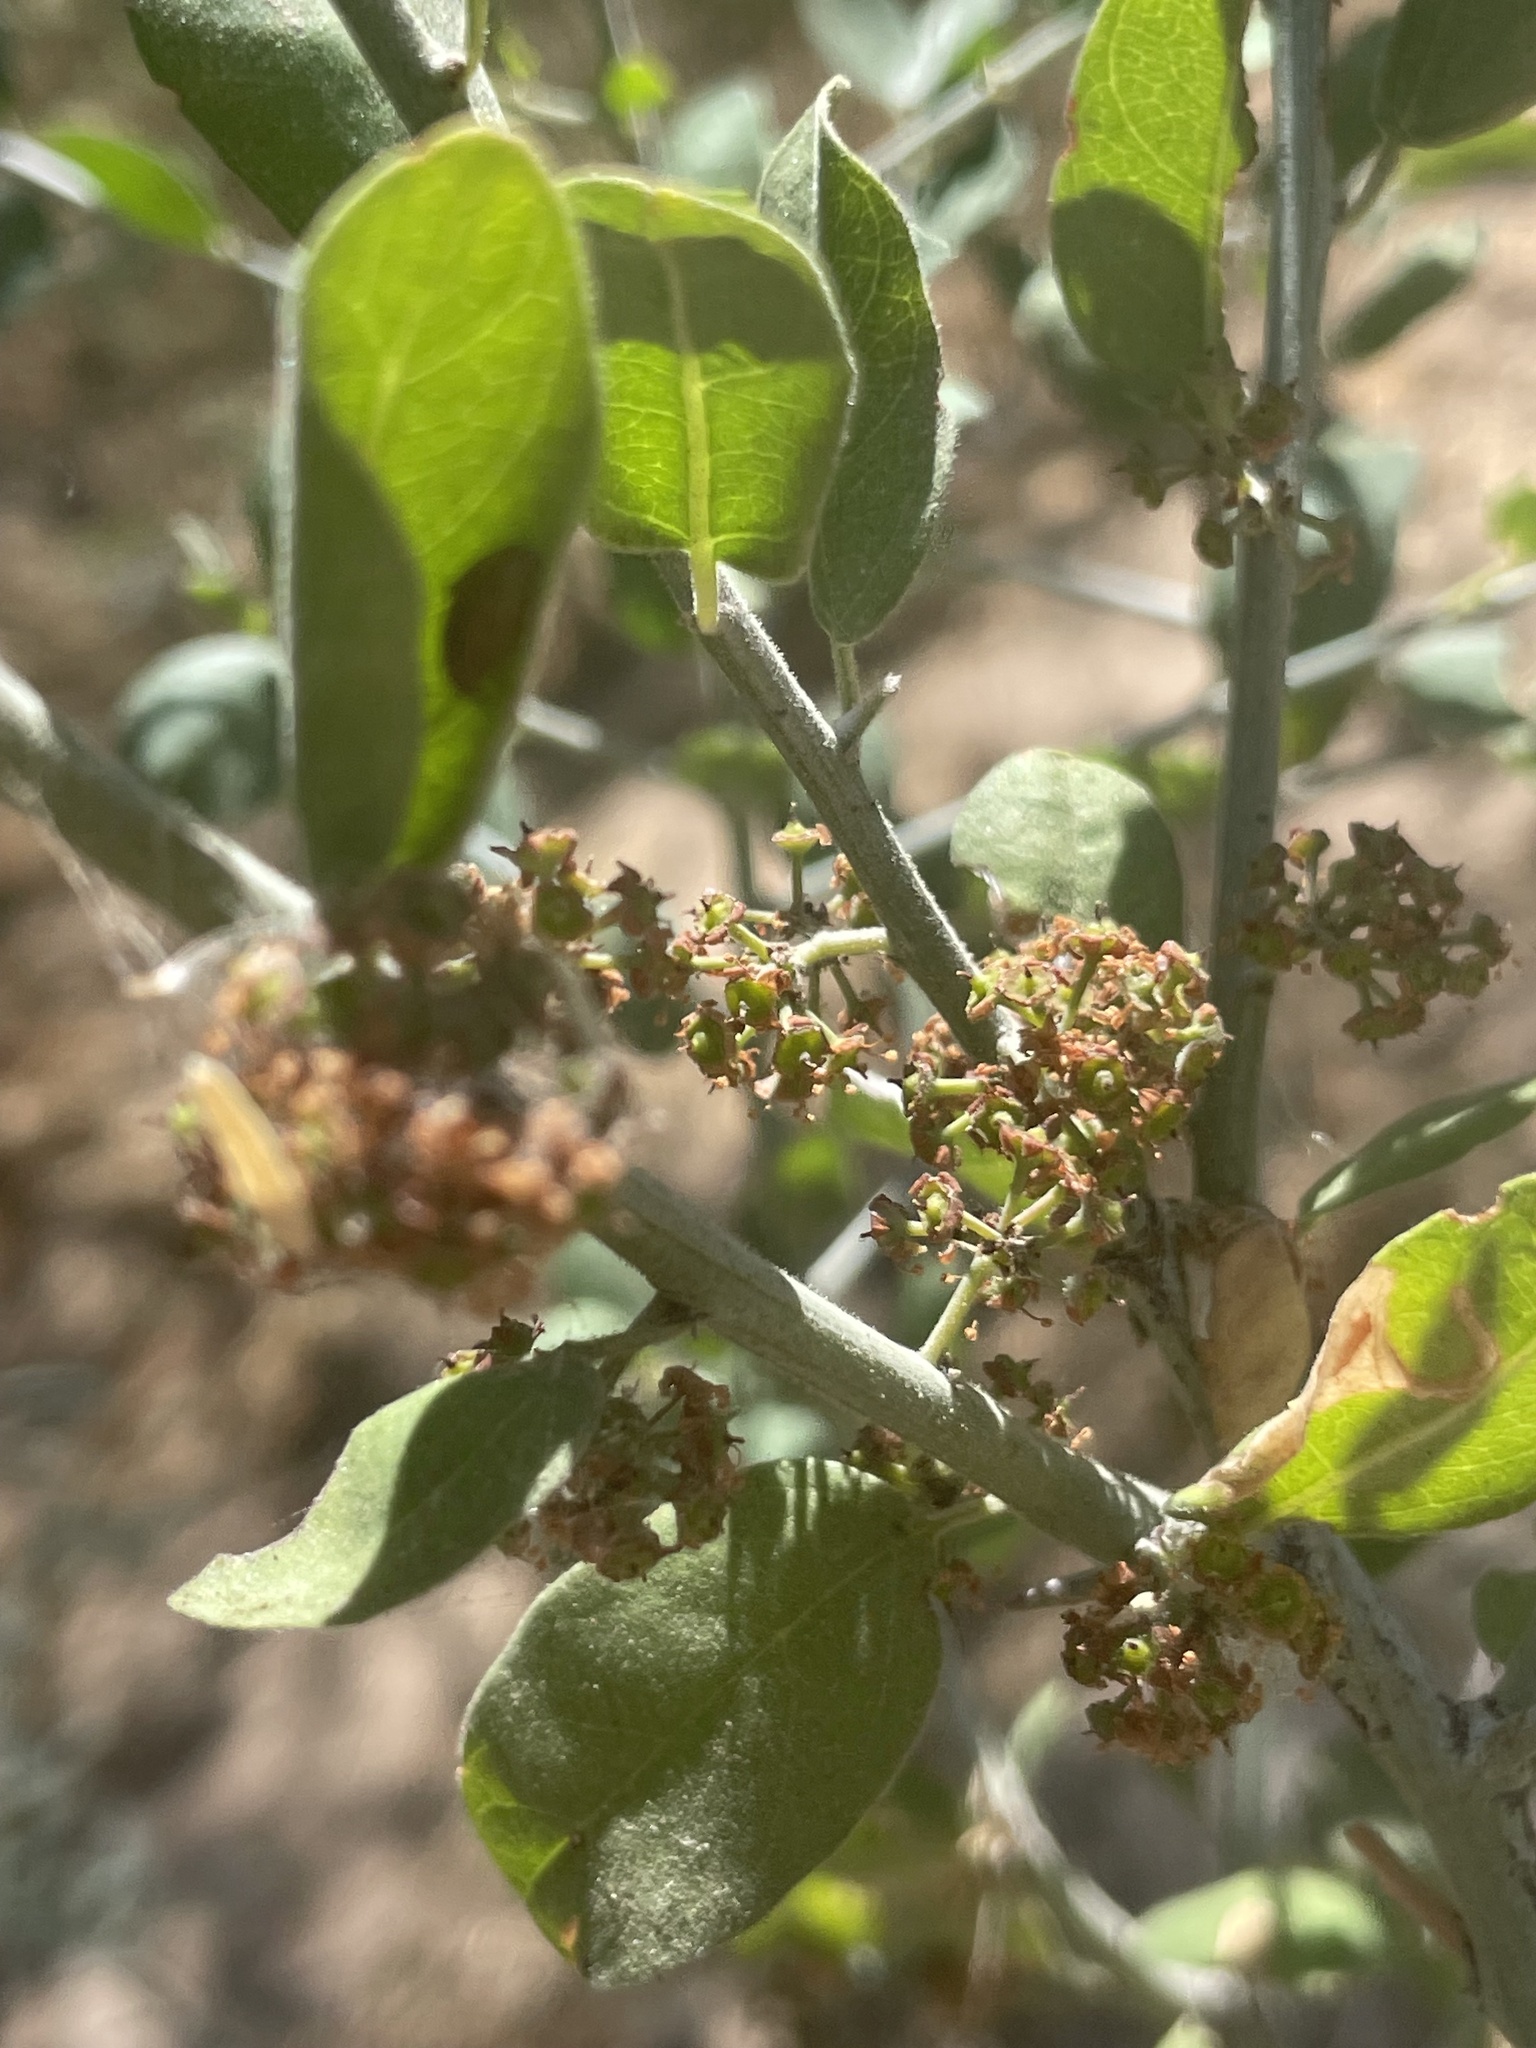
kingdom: Plantae
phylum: Tracheophyta
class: Magnoliopsida
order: Rosales
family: Rhamnaceae
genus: Sarcomphalus
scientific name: Sarcomphalus obtusifolius
